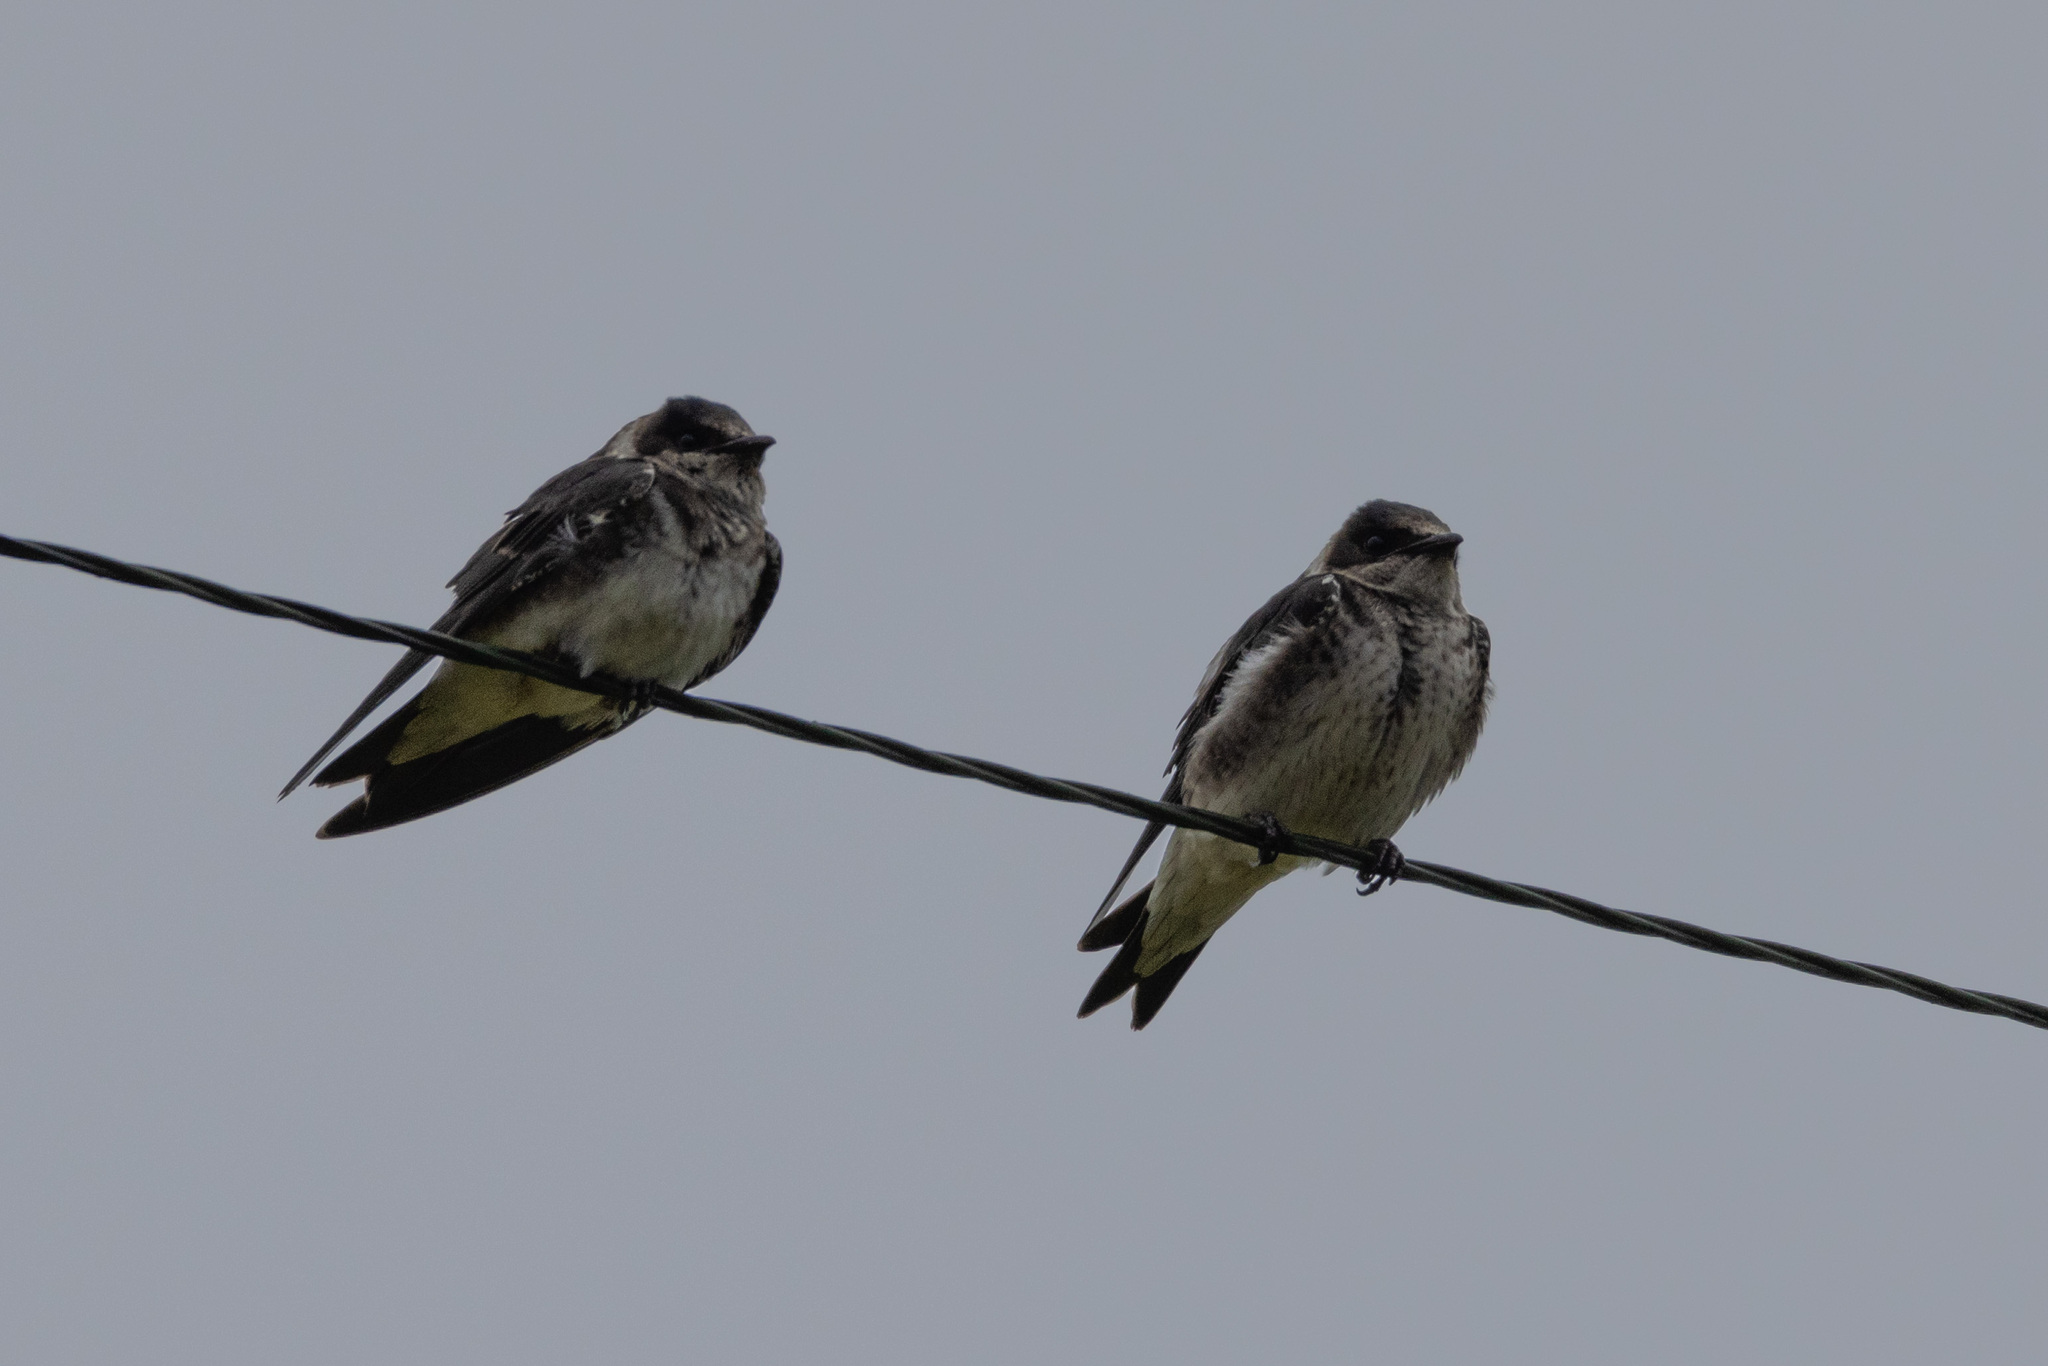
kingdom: Animalia
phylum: Chordata
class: Aves
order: Passeriformes
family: Hirundinidae
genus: Progne
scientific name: Progne subis
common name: Purple martin
